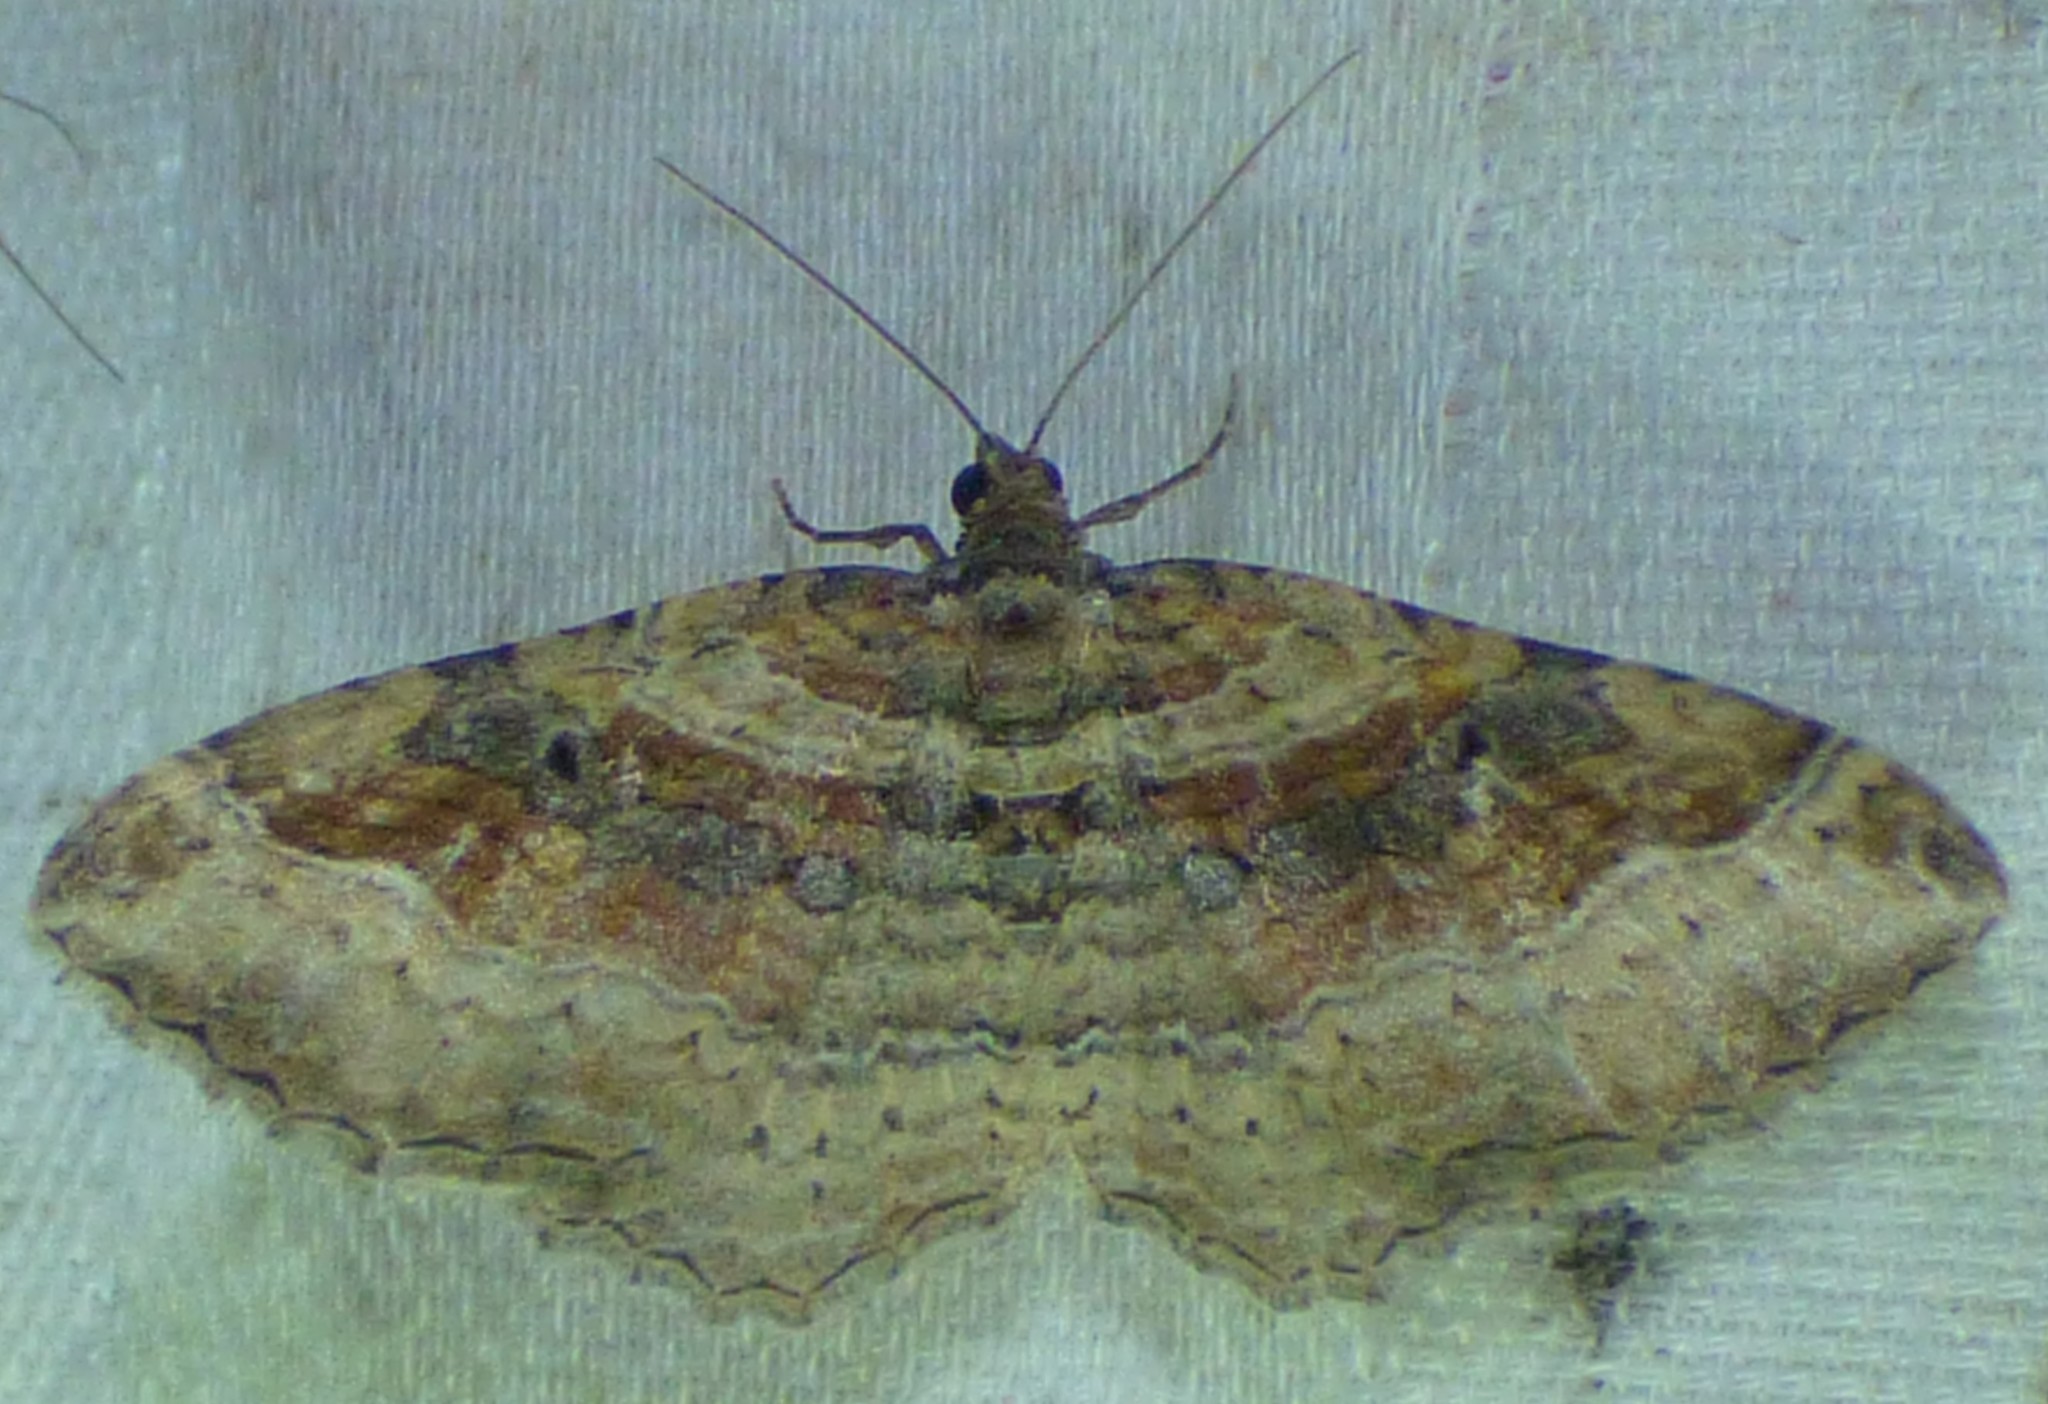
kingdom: Animalia
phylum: Arthropoda
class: Insecta
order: Lepidoptera
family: Geometridae
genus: Costaconvexa
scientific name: Costaconvexa centrostrigaria
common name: Bent-line carpet
